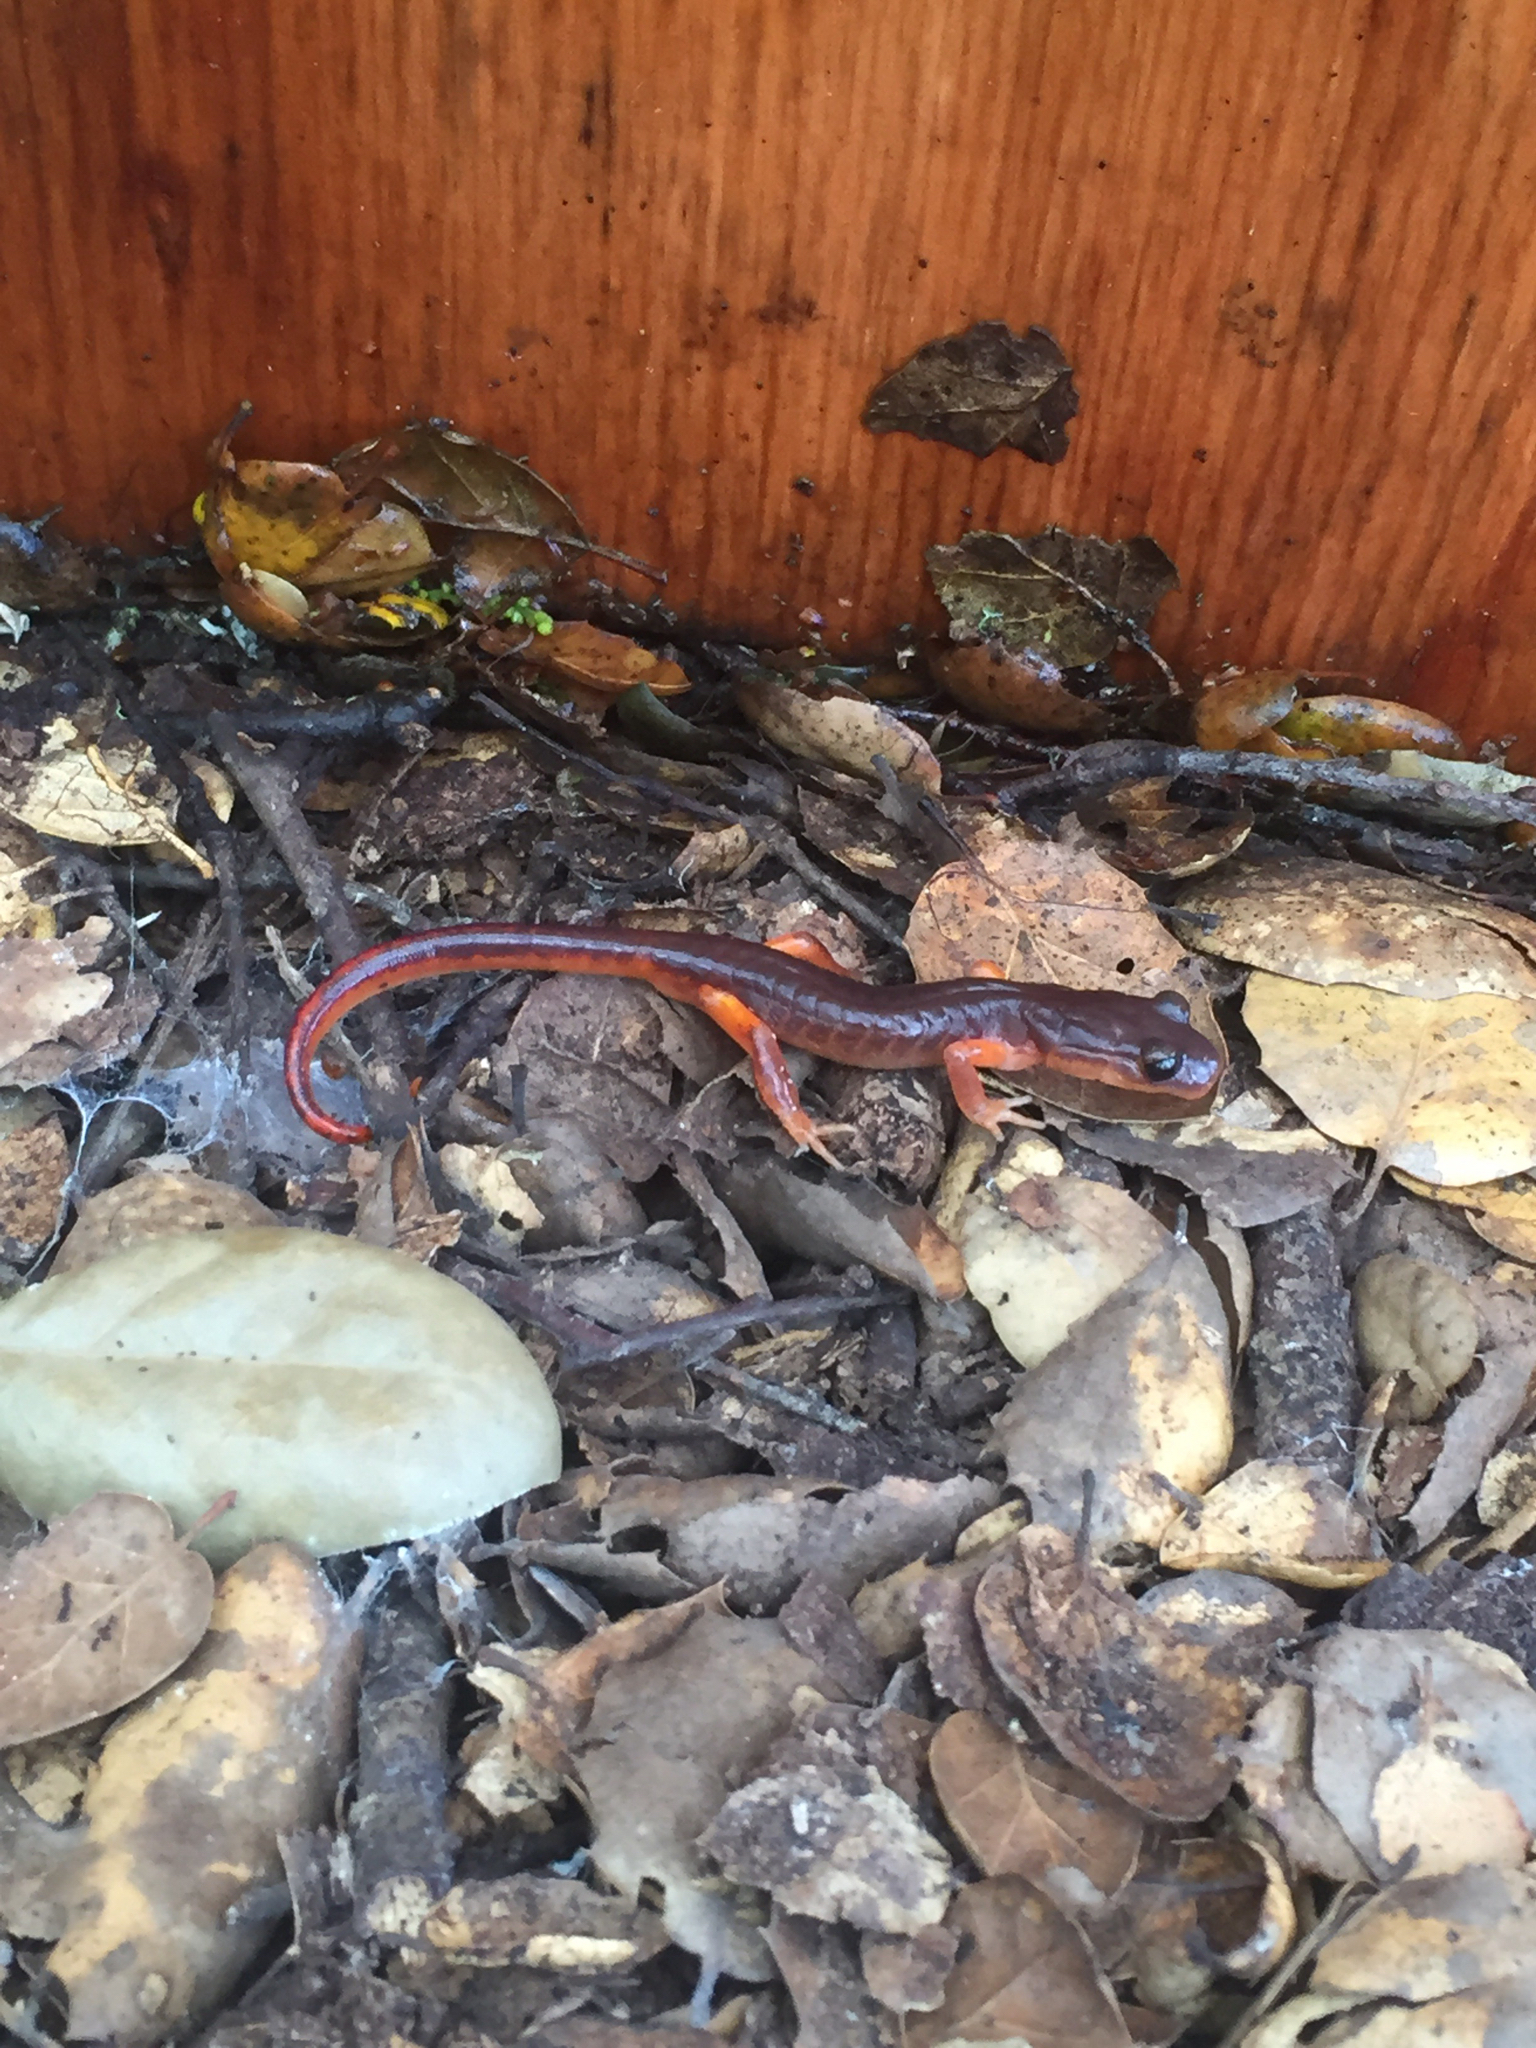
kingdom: Animalia
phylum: Chordata
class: Amphibia
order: Caudata
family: Plethodontidae
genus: Ensatina
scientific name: Ensatina eschscholtzii
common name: Ensatina
